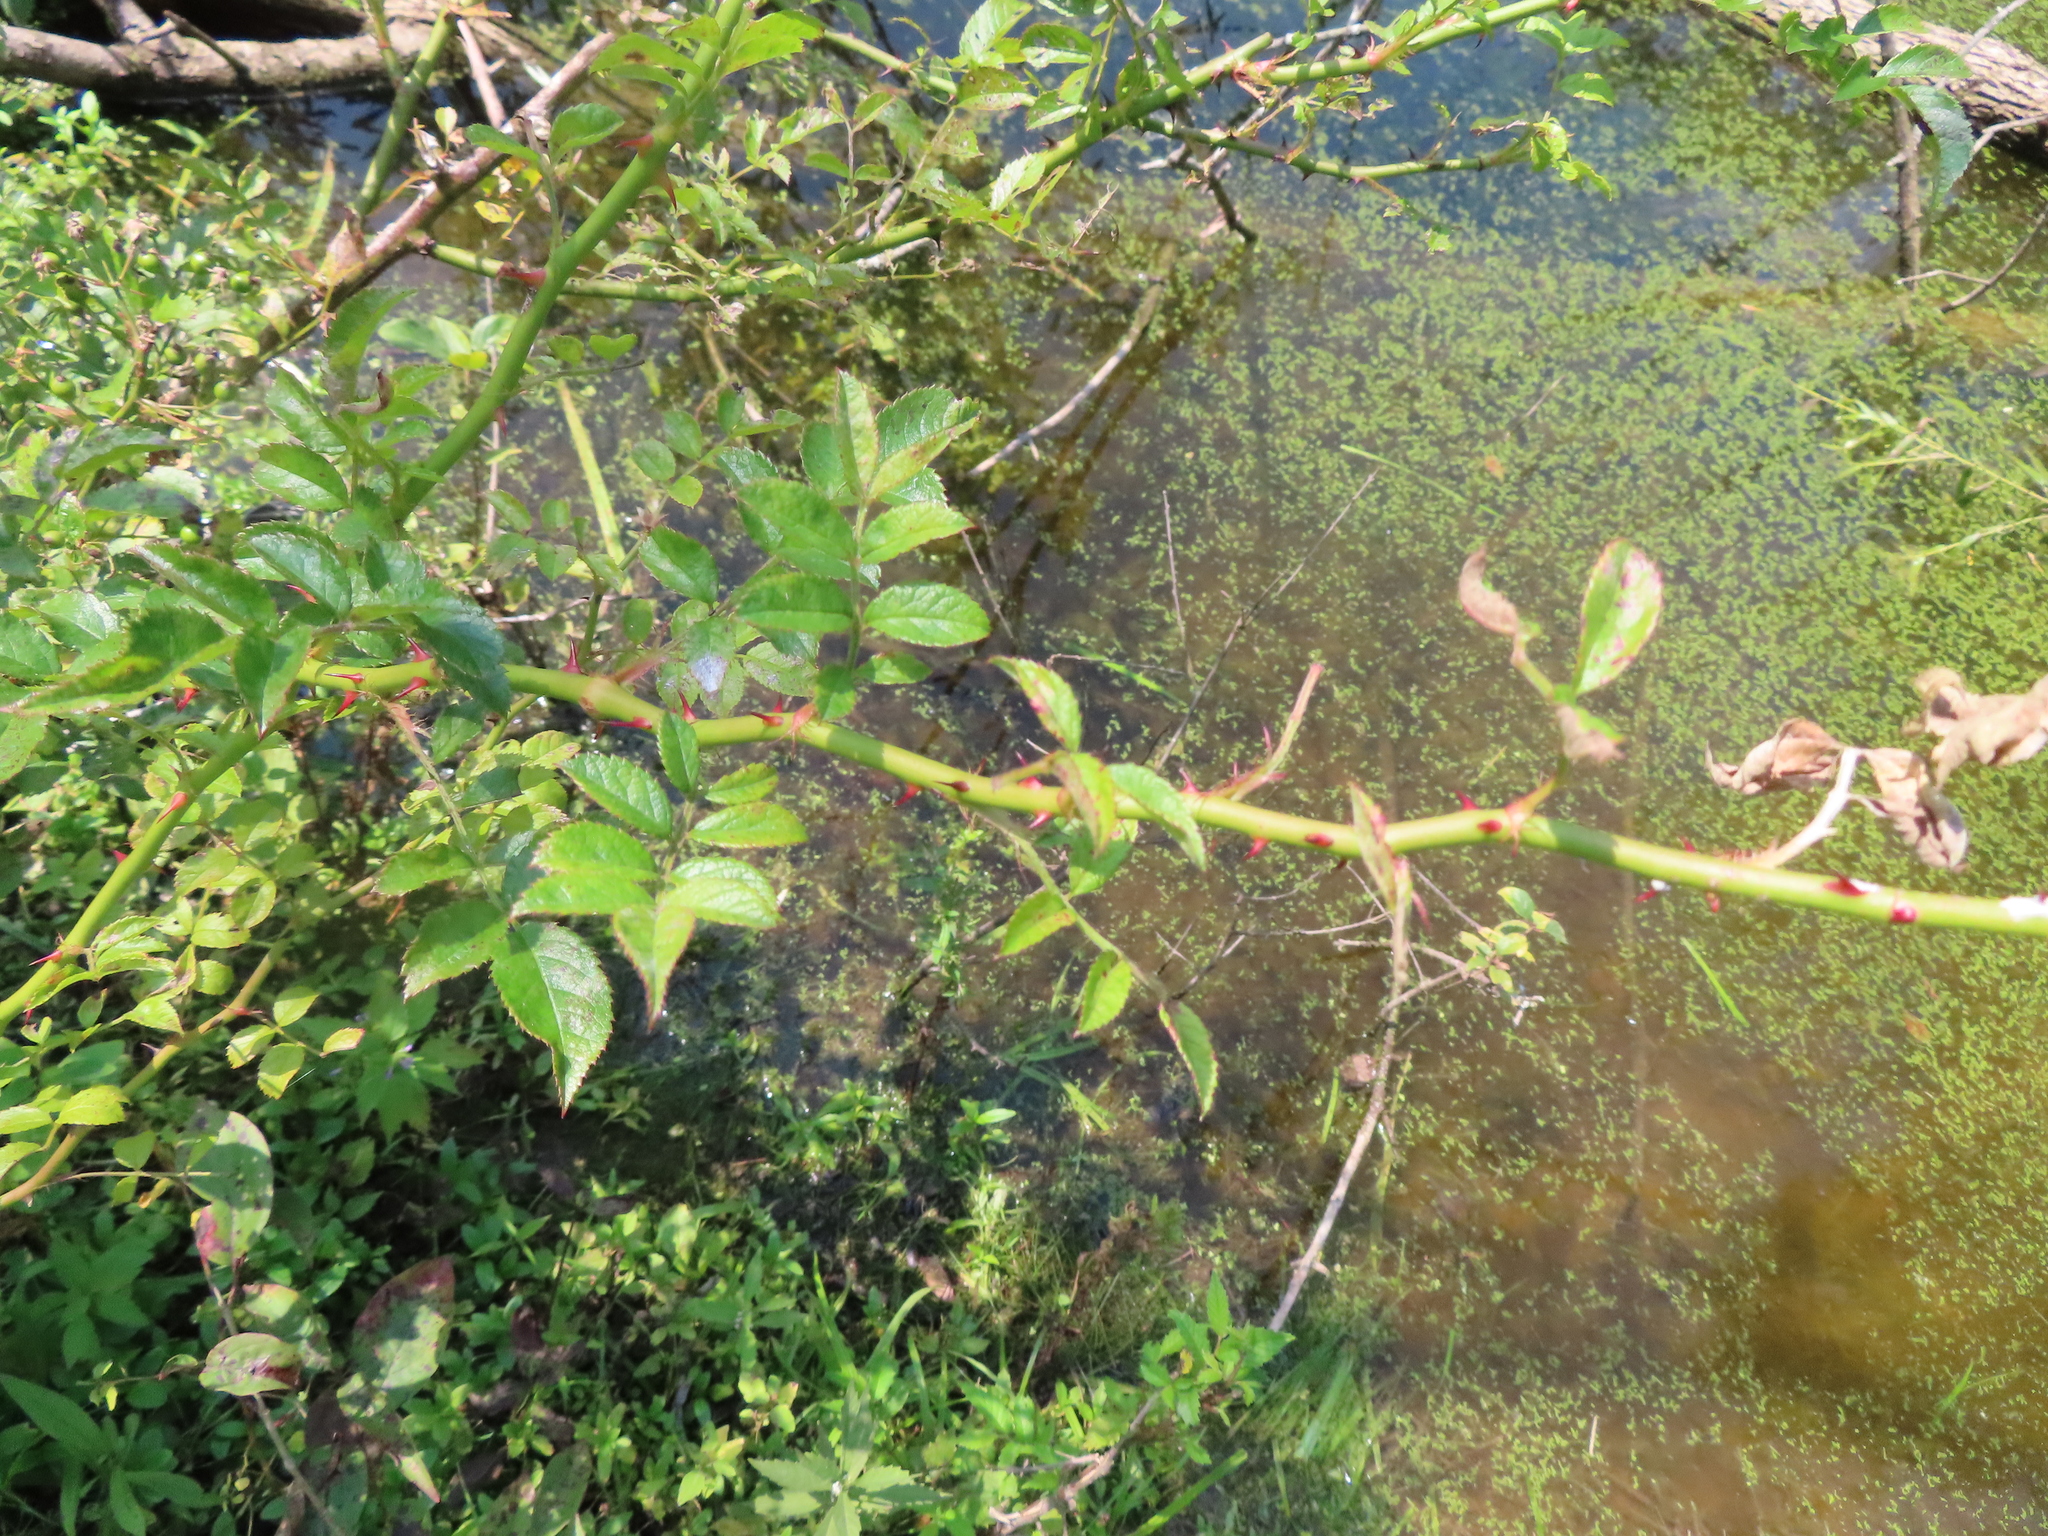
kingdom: Plantae
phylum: Tracheophyta
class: Magnoliopsida
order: Rosales
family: Rosaceae
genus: Rosa
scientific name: Rosa multiflora
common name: Multiflora rose
